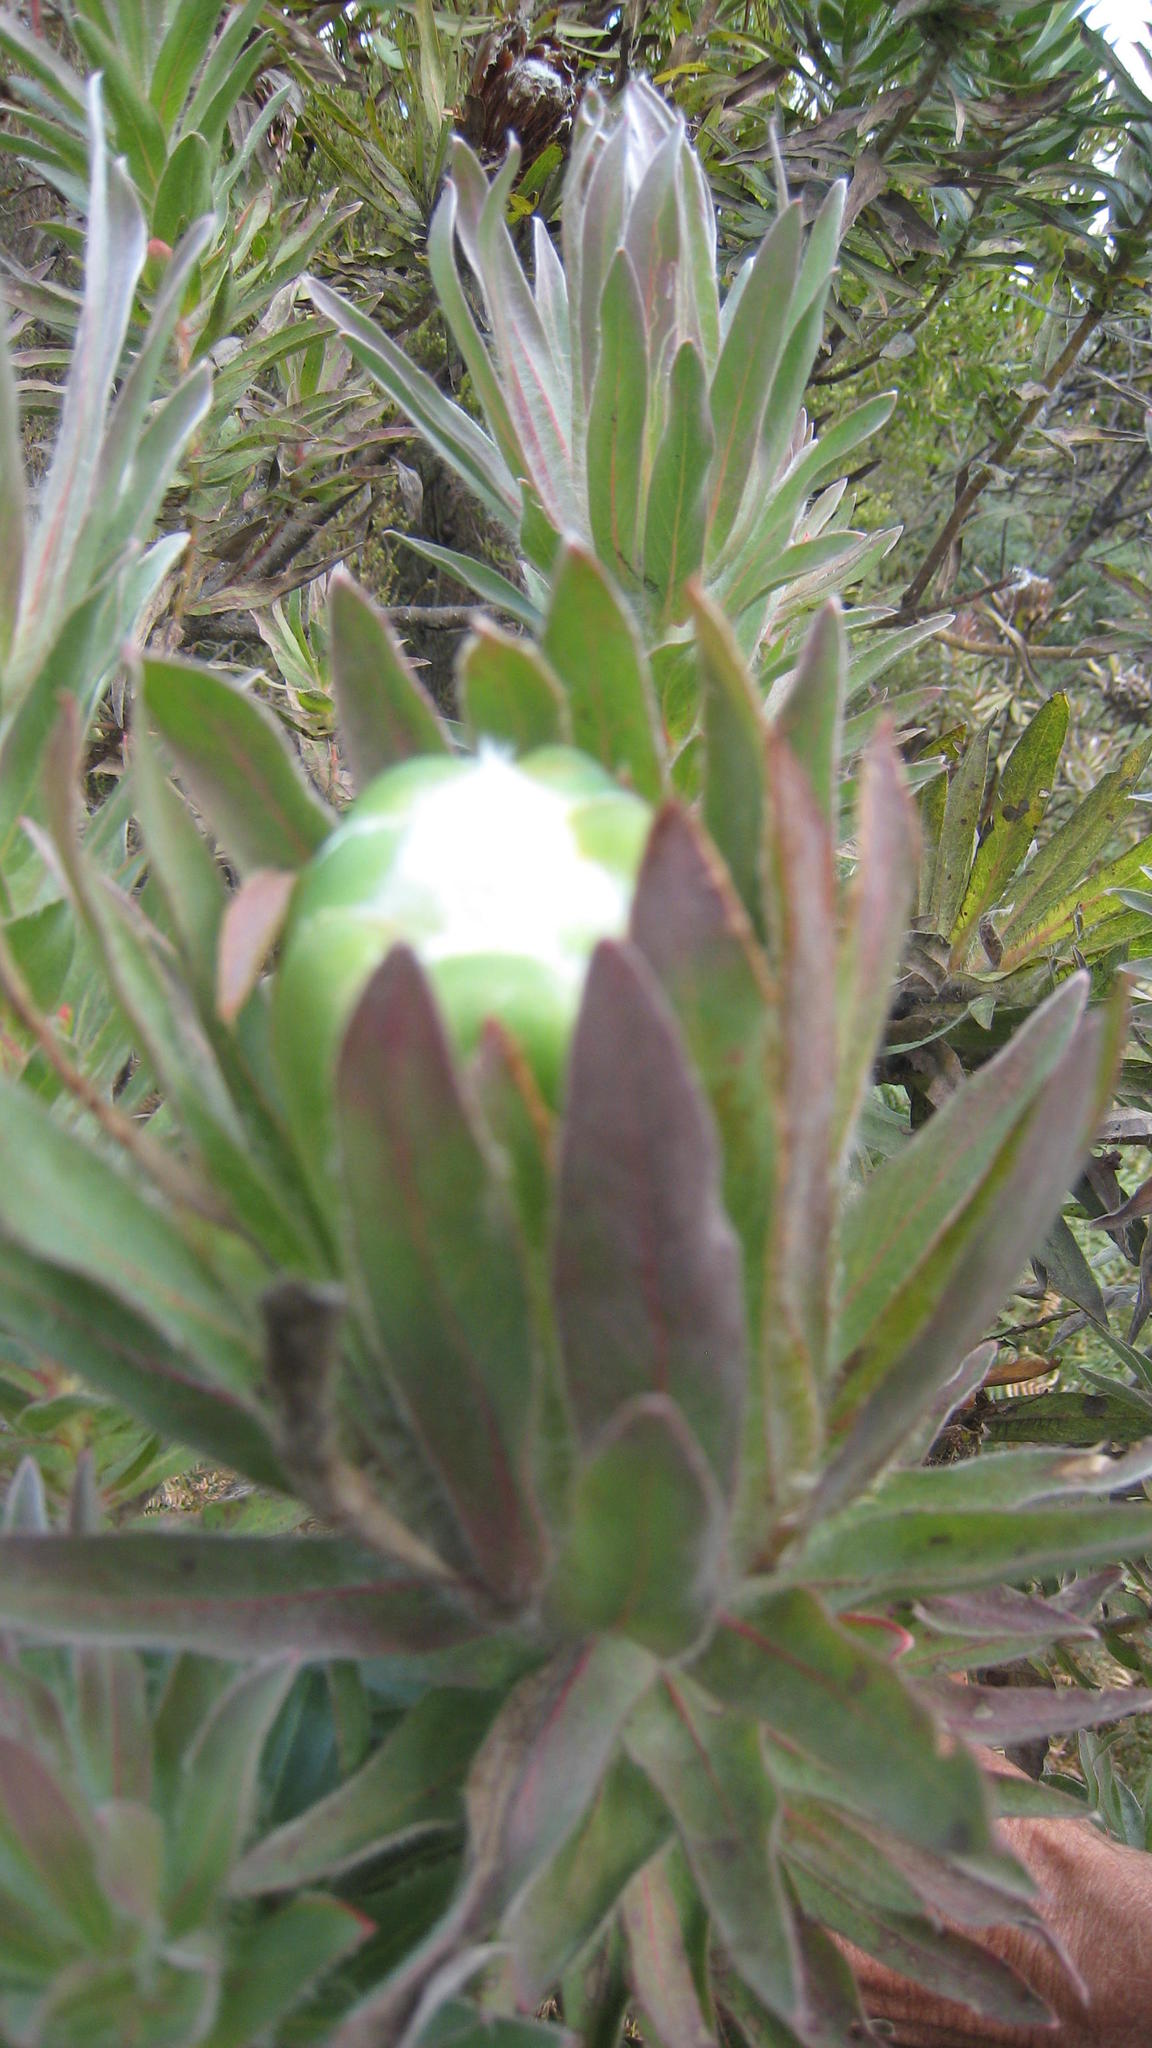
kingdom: Plantae
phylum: Tracheophyta
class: Magnoliopsida
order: Proteales
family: Proteaceae
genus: Protea
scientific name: Protea coronata
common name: Green sugarbush
